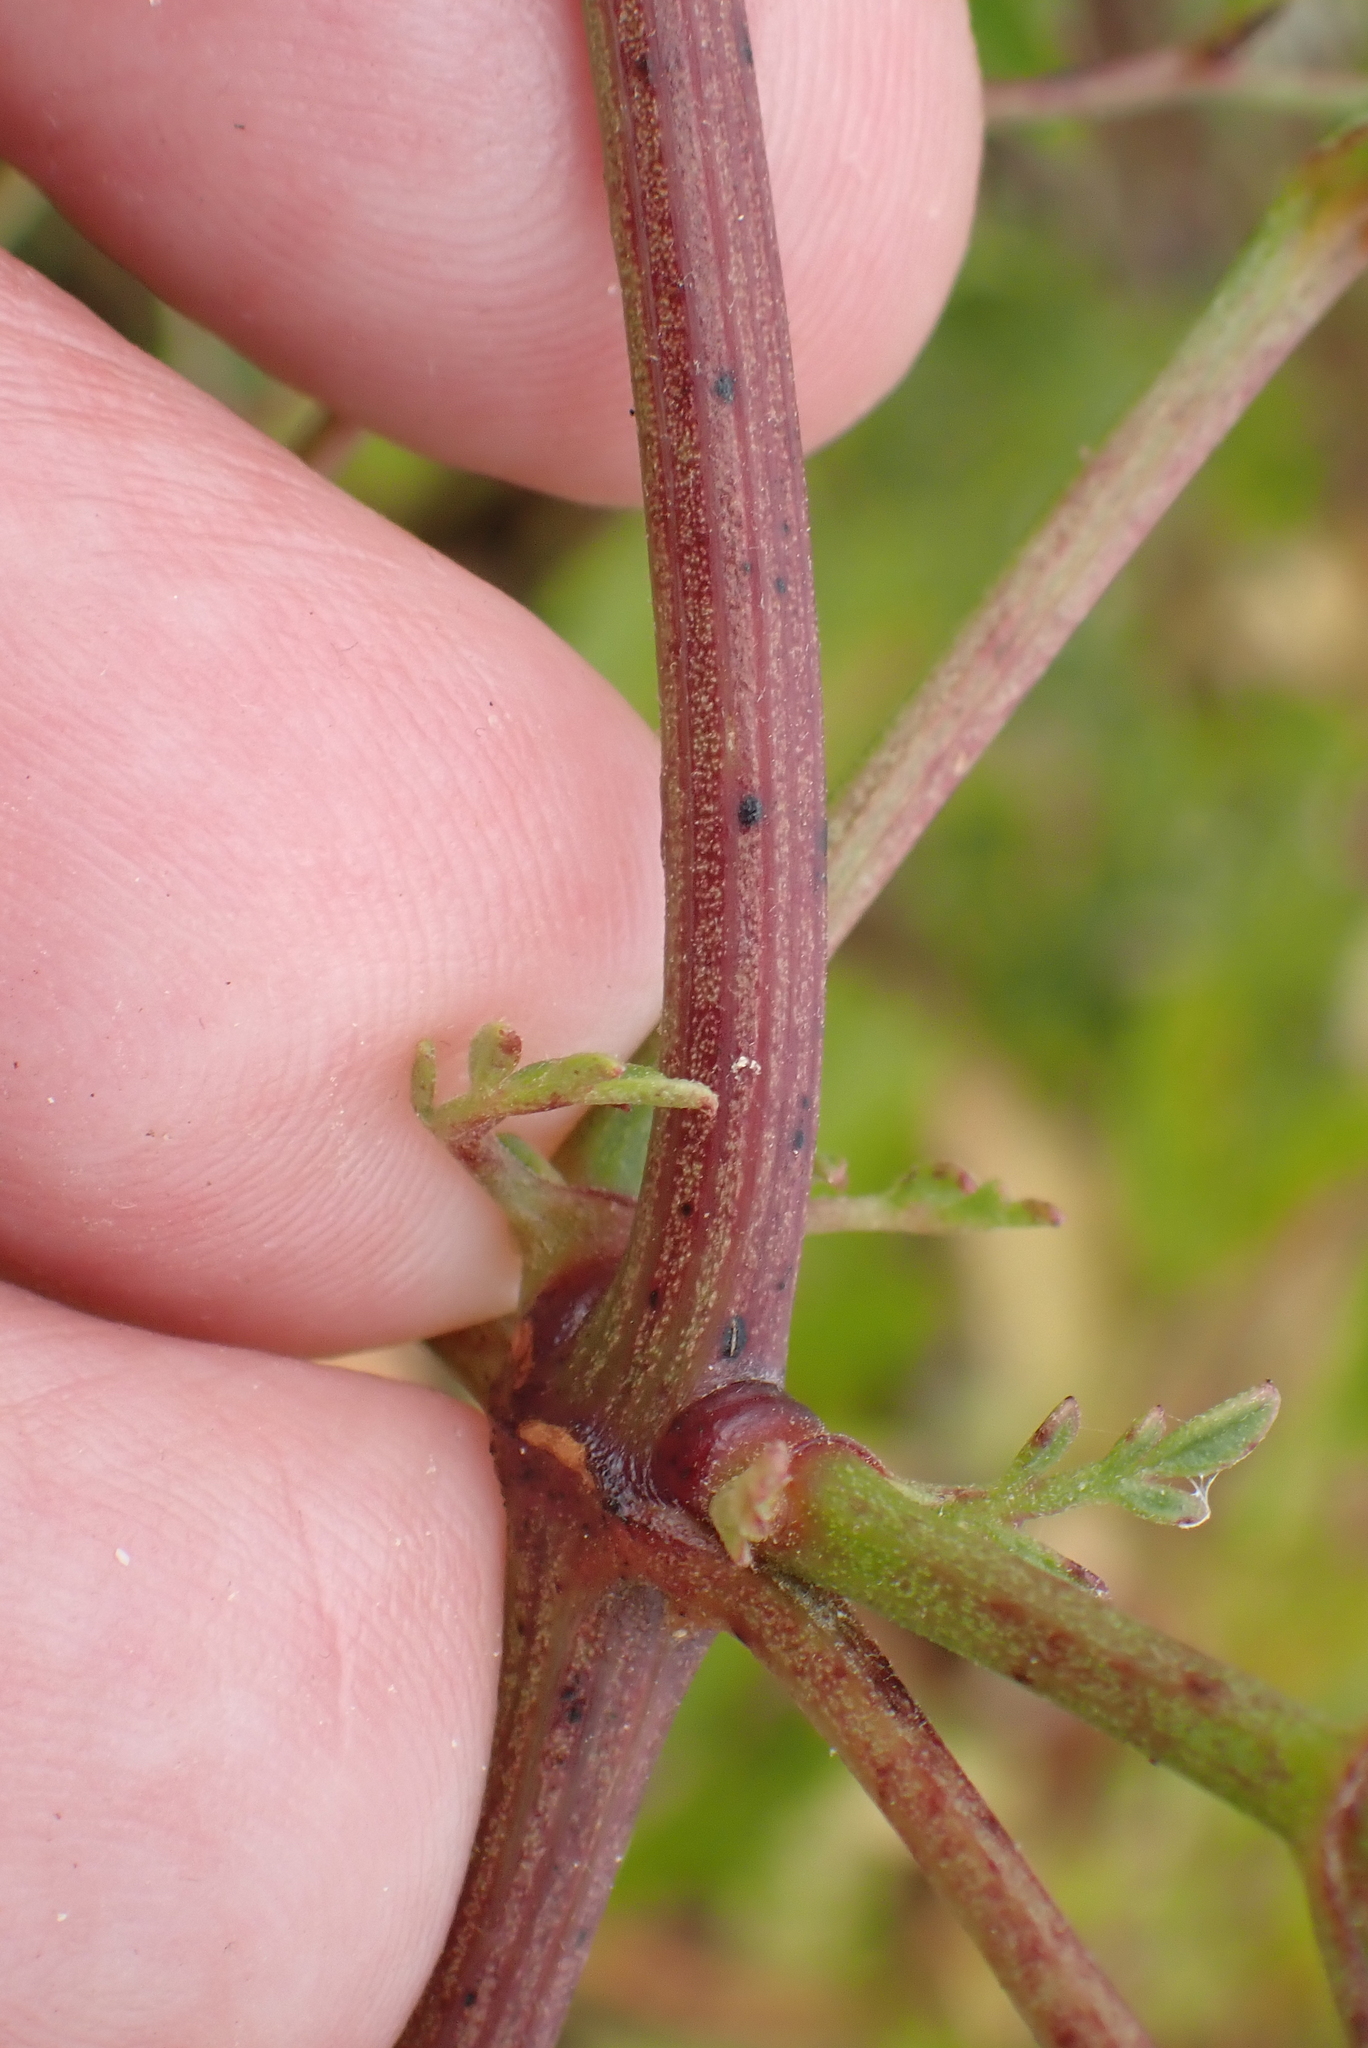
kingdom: Plantae
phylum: Tracheophyta
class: Magnoliopsida
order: Ranunculales
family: Ranunculaceae
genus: Clematis
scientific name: Clematis flammula
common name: Virgin's-bower
